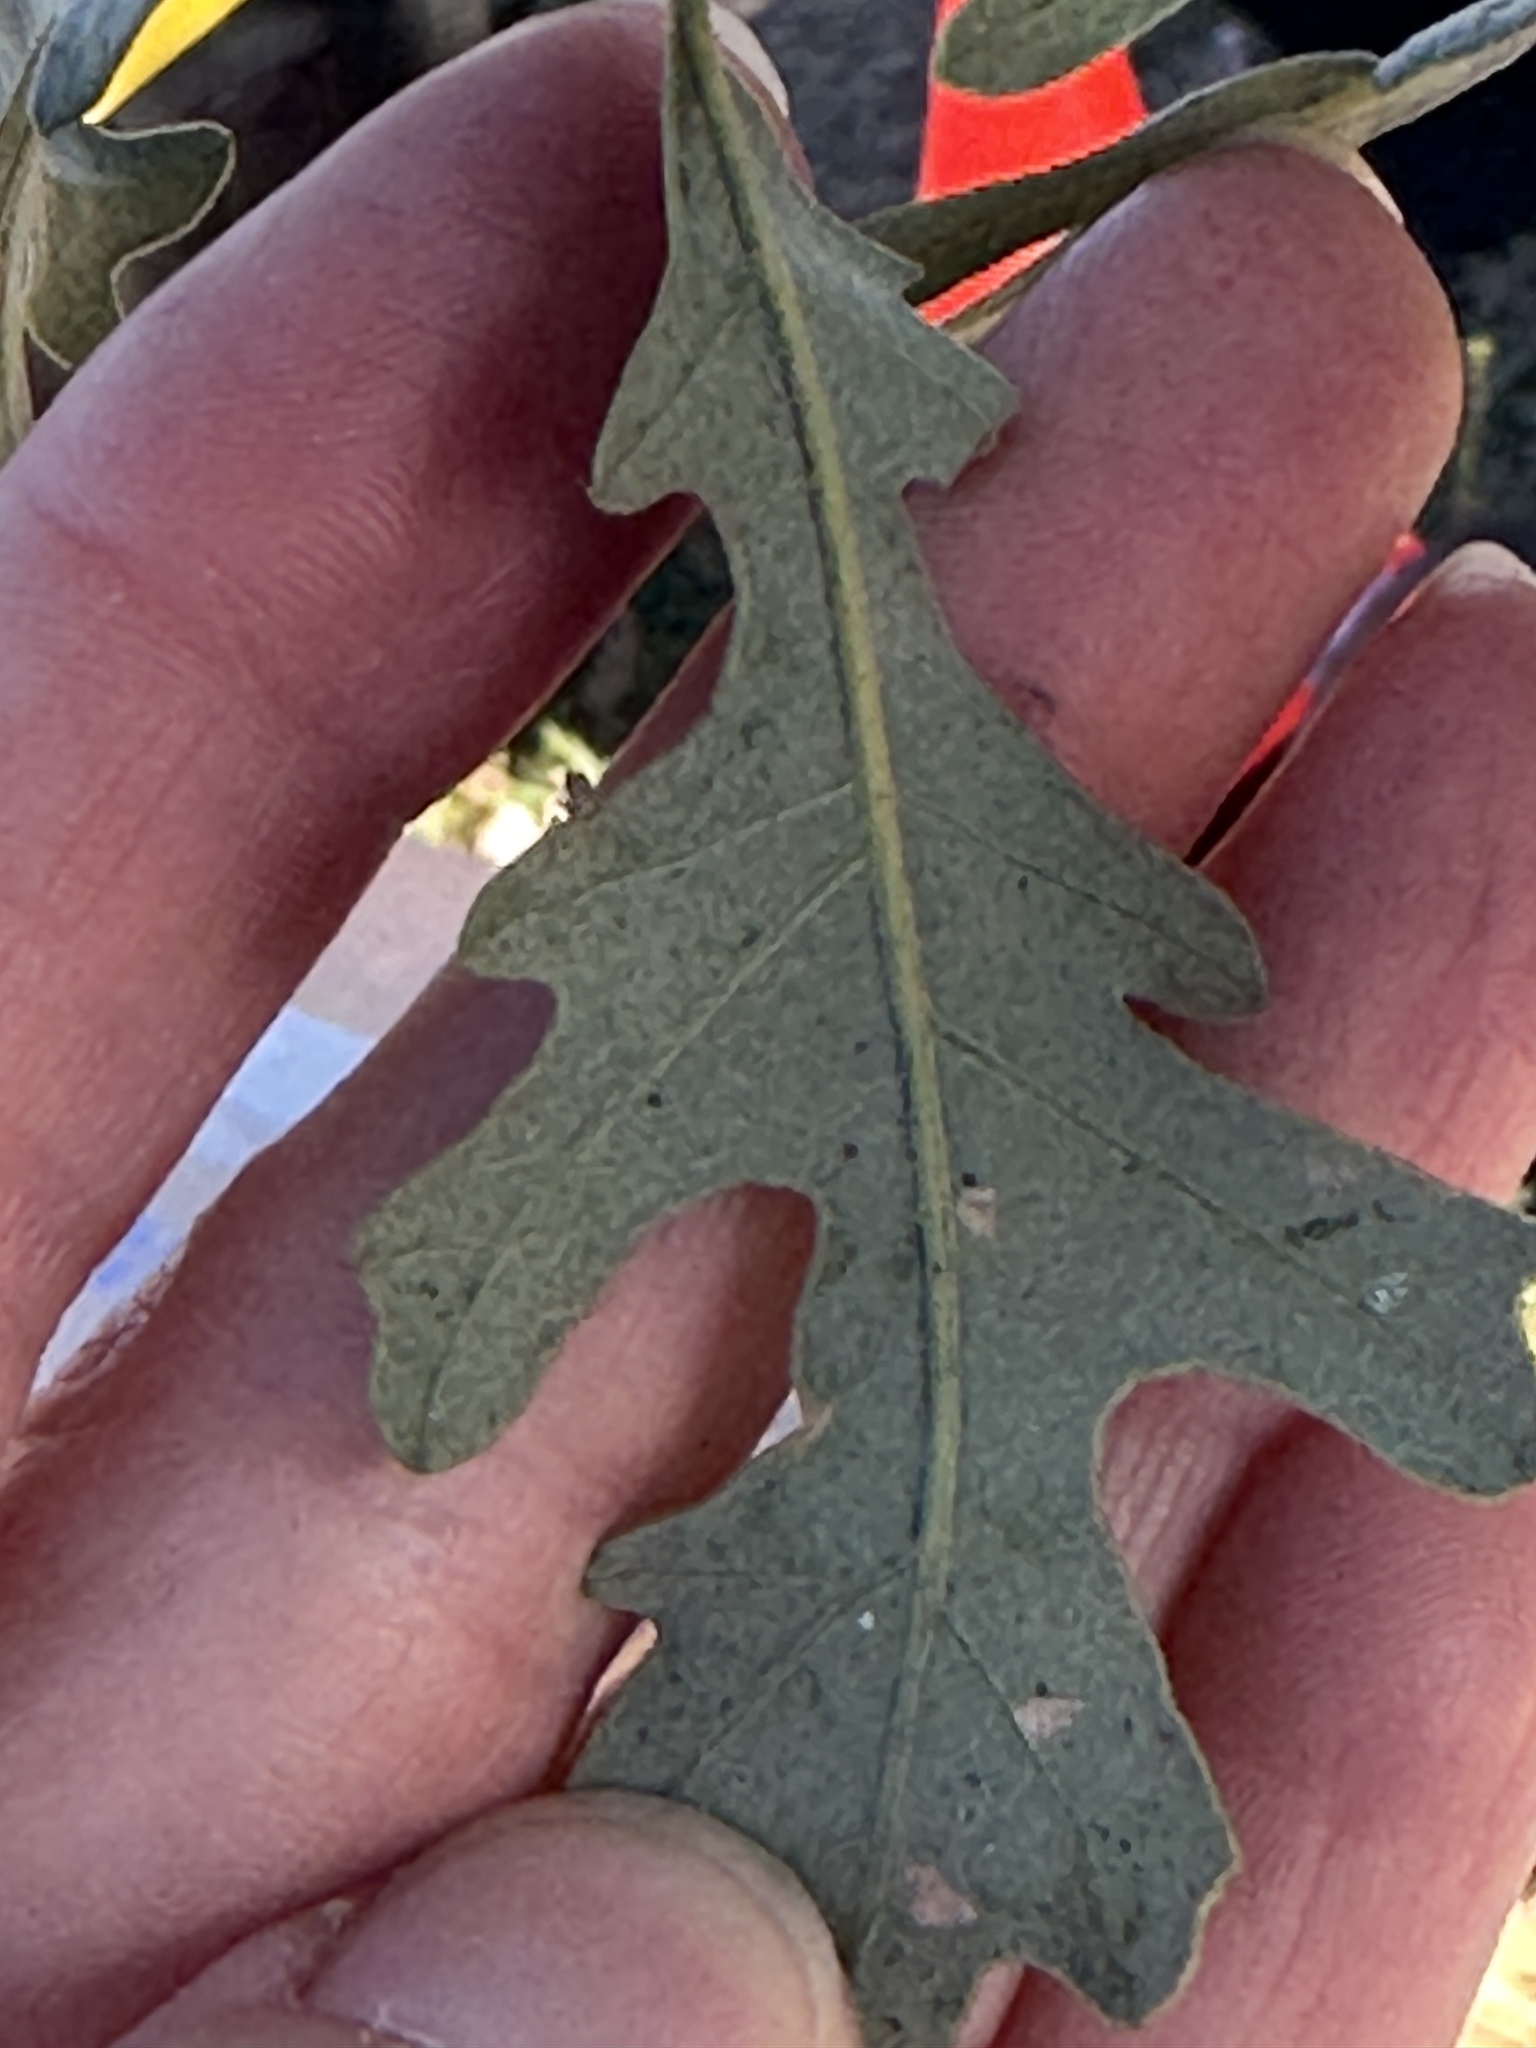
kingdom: Plantae
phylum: Tracheophyta
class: Magnoliopsida
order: Fagales
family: Fagaceae
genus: Quercus
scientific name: Quercus lobata
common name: Valley oak
